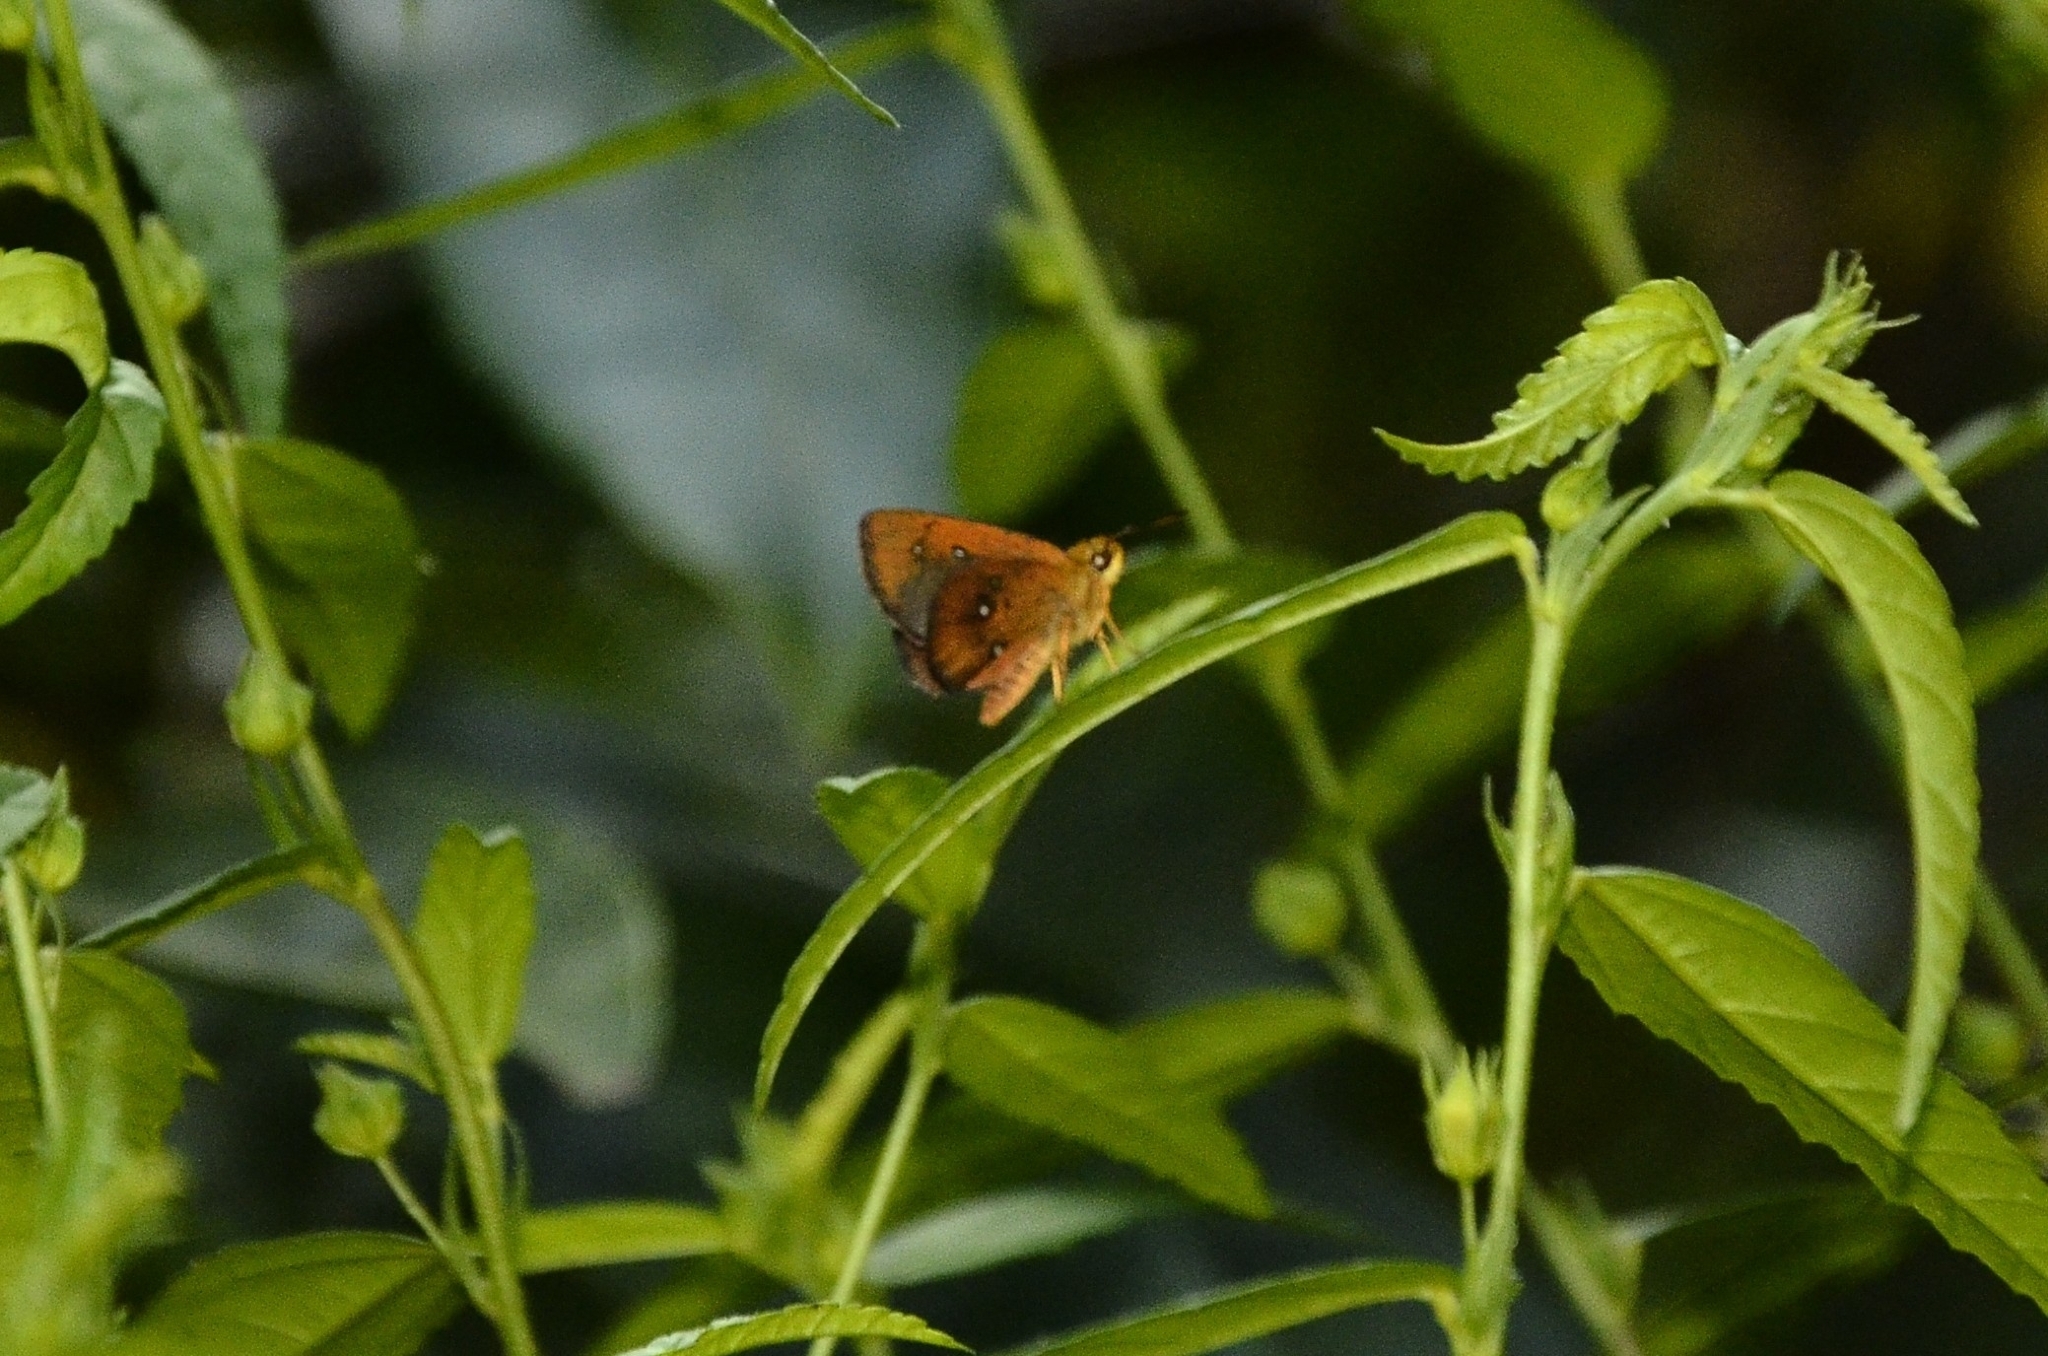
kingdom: Animalia
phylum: Arthropoda
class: Insecta
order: Lepidoptera
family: Hesperiidae
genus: Iambrix
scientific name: Iambrix salsala
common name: Chestnut bob
